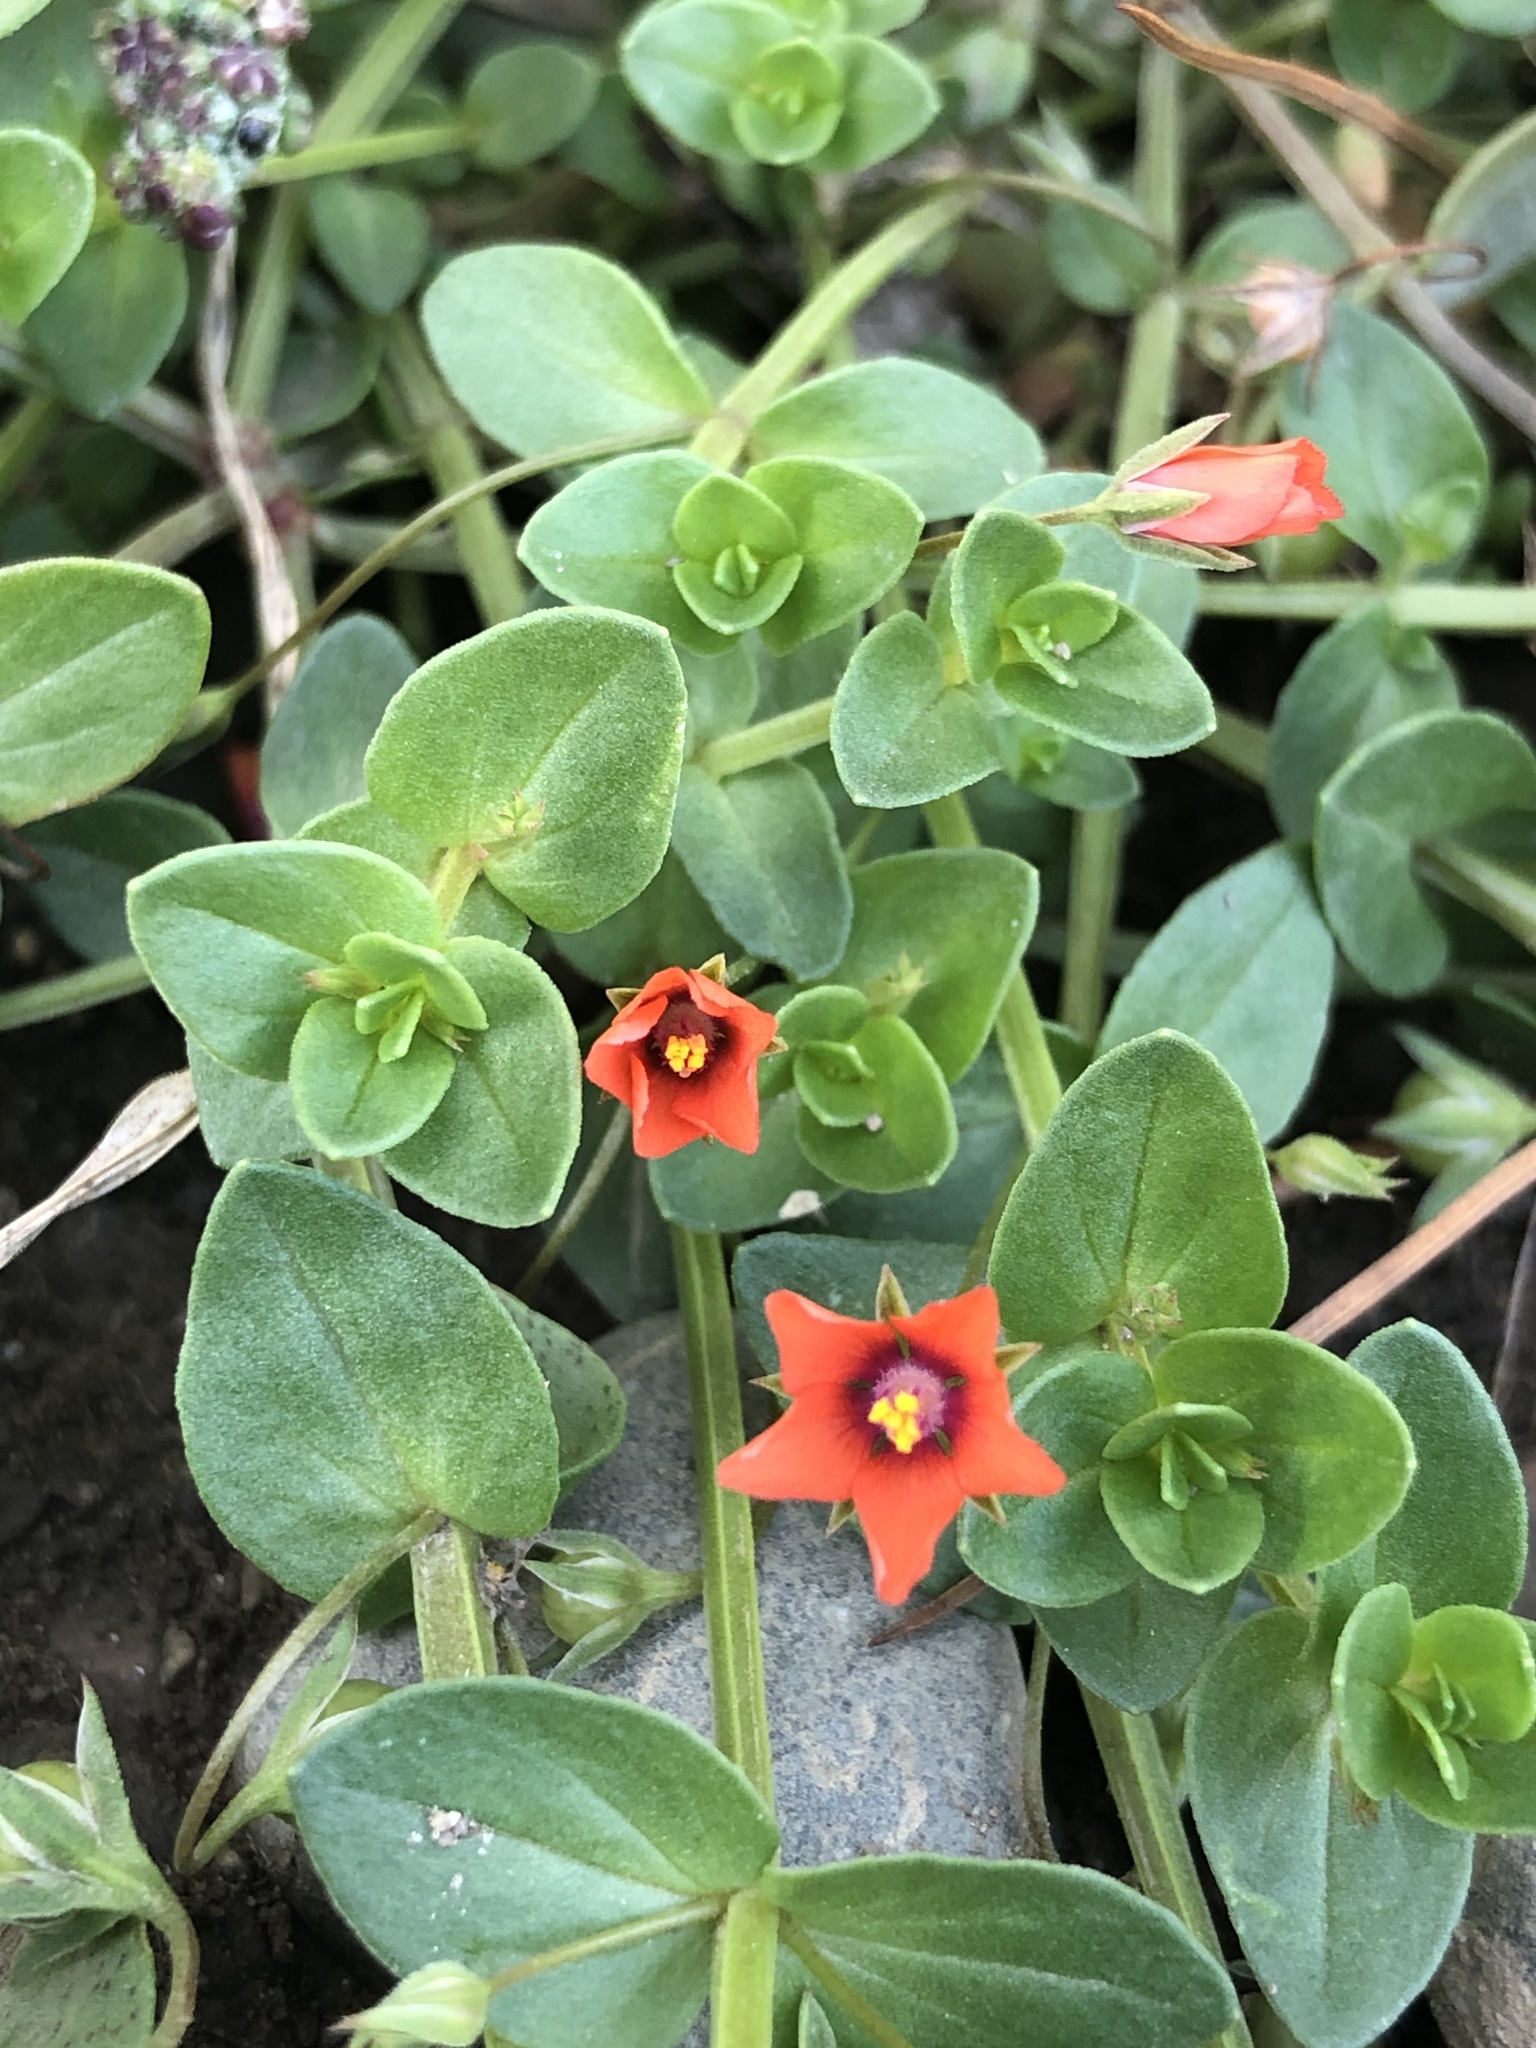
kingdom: Plantae
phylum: Tracheophyta
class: Magnoliopsida
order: Ericales
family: Primulaceae
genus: Lysimachia
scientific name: Lysimachia arvensis
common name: Scarlet pimpernel
